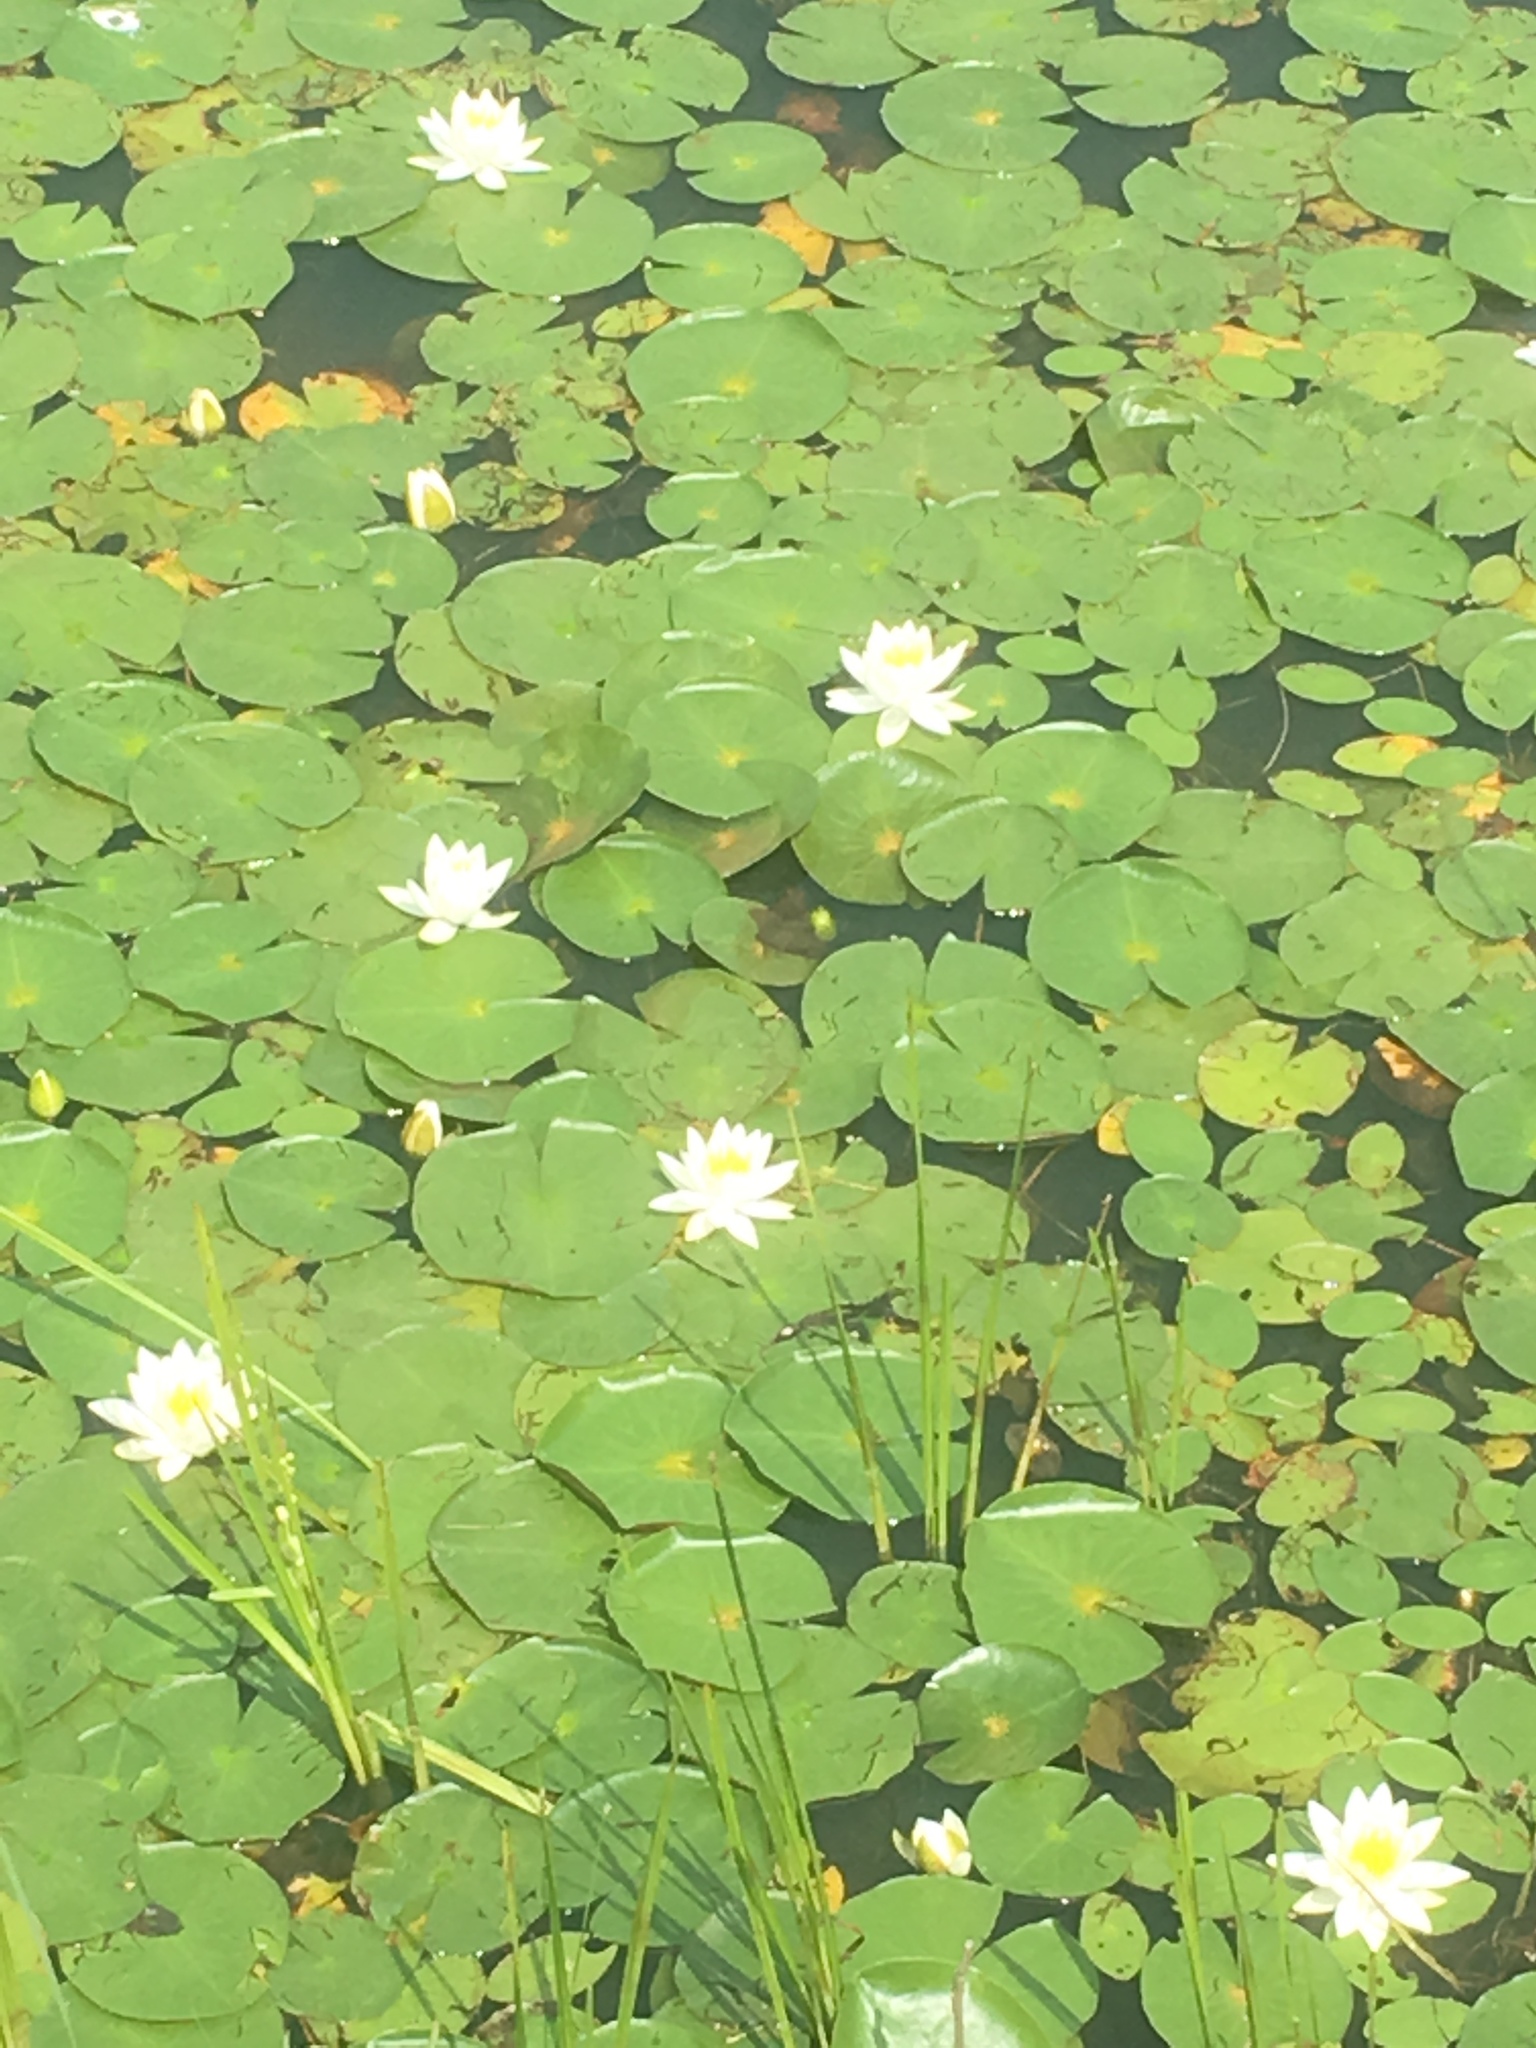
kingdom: Plantae
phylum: Tracheophyta
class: Magnoliopsida
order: Nymphaeales
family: Nymphaeaceae
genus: Nymphaea
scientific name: Nymphaea odorata
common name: Fragrant water-lily
